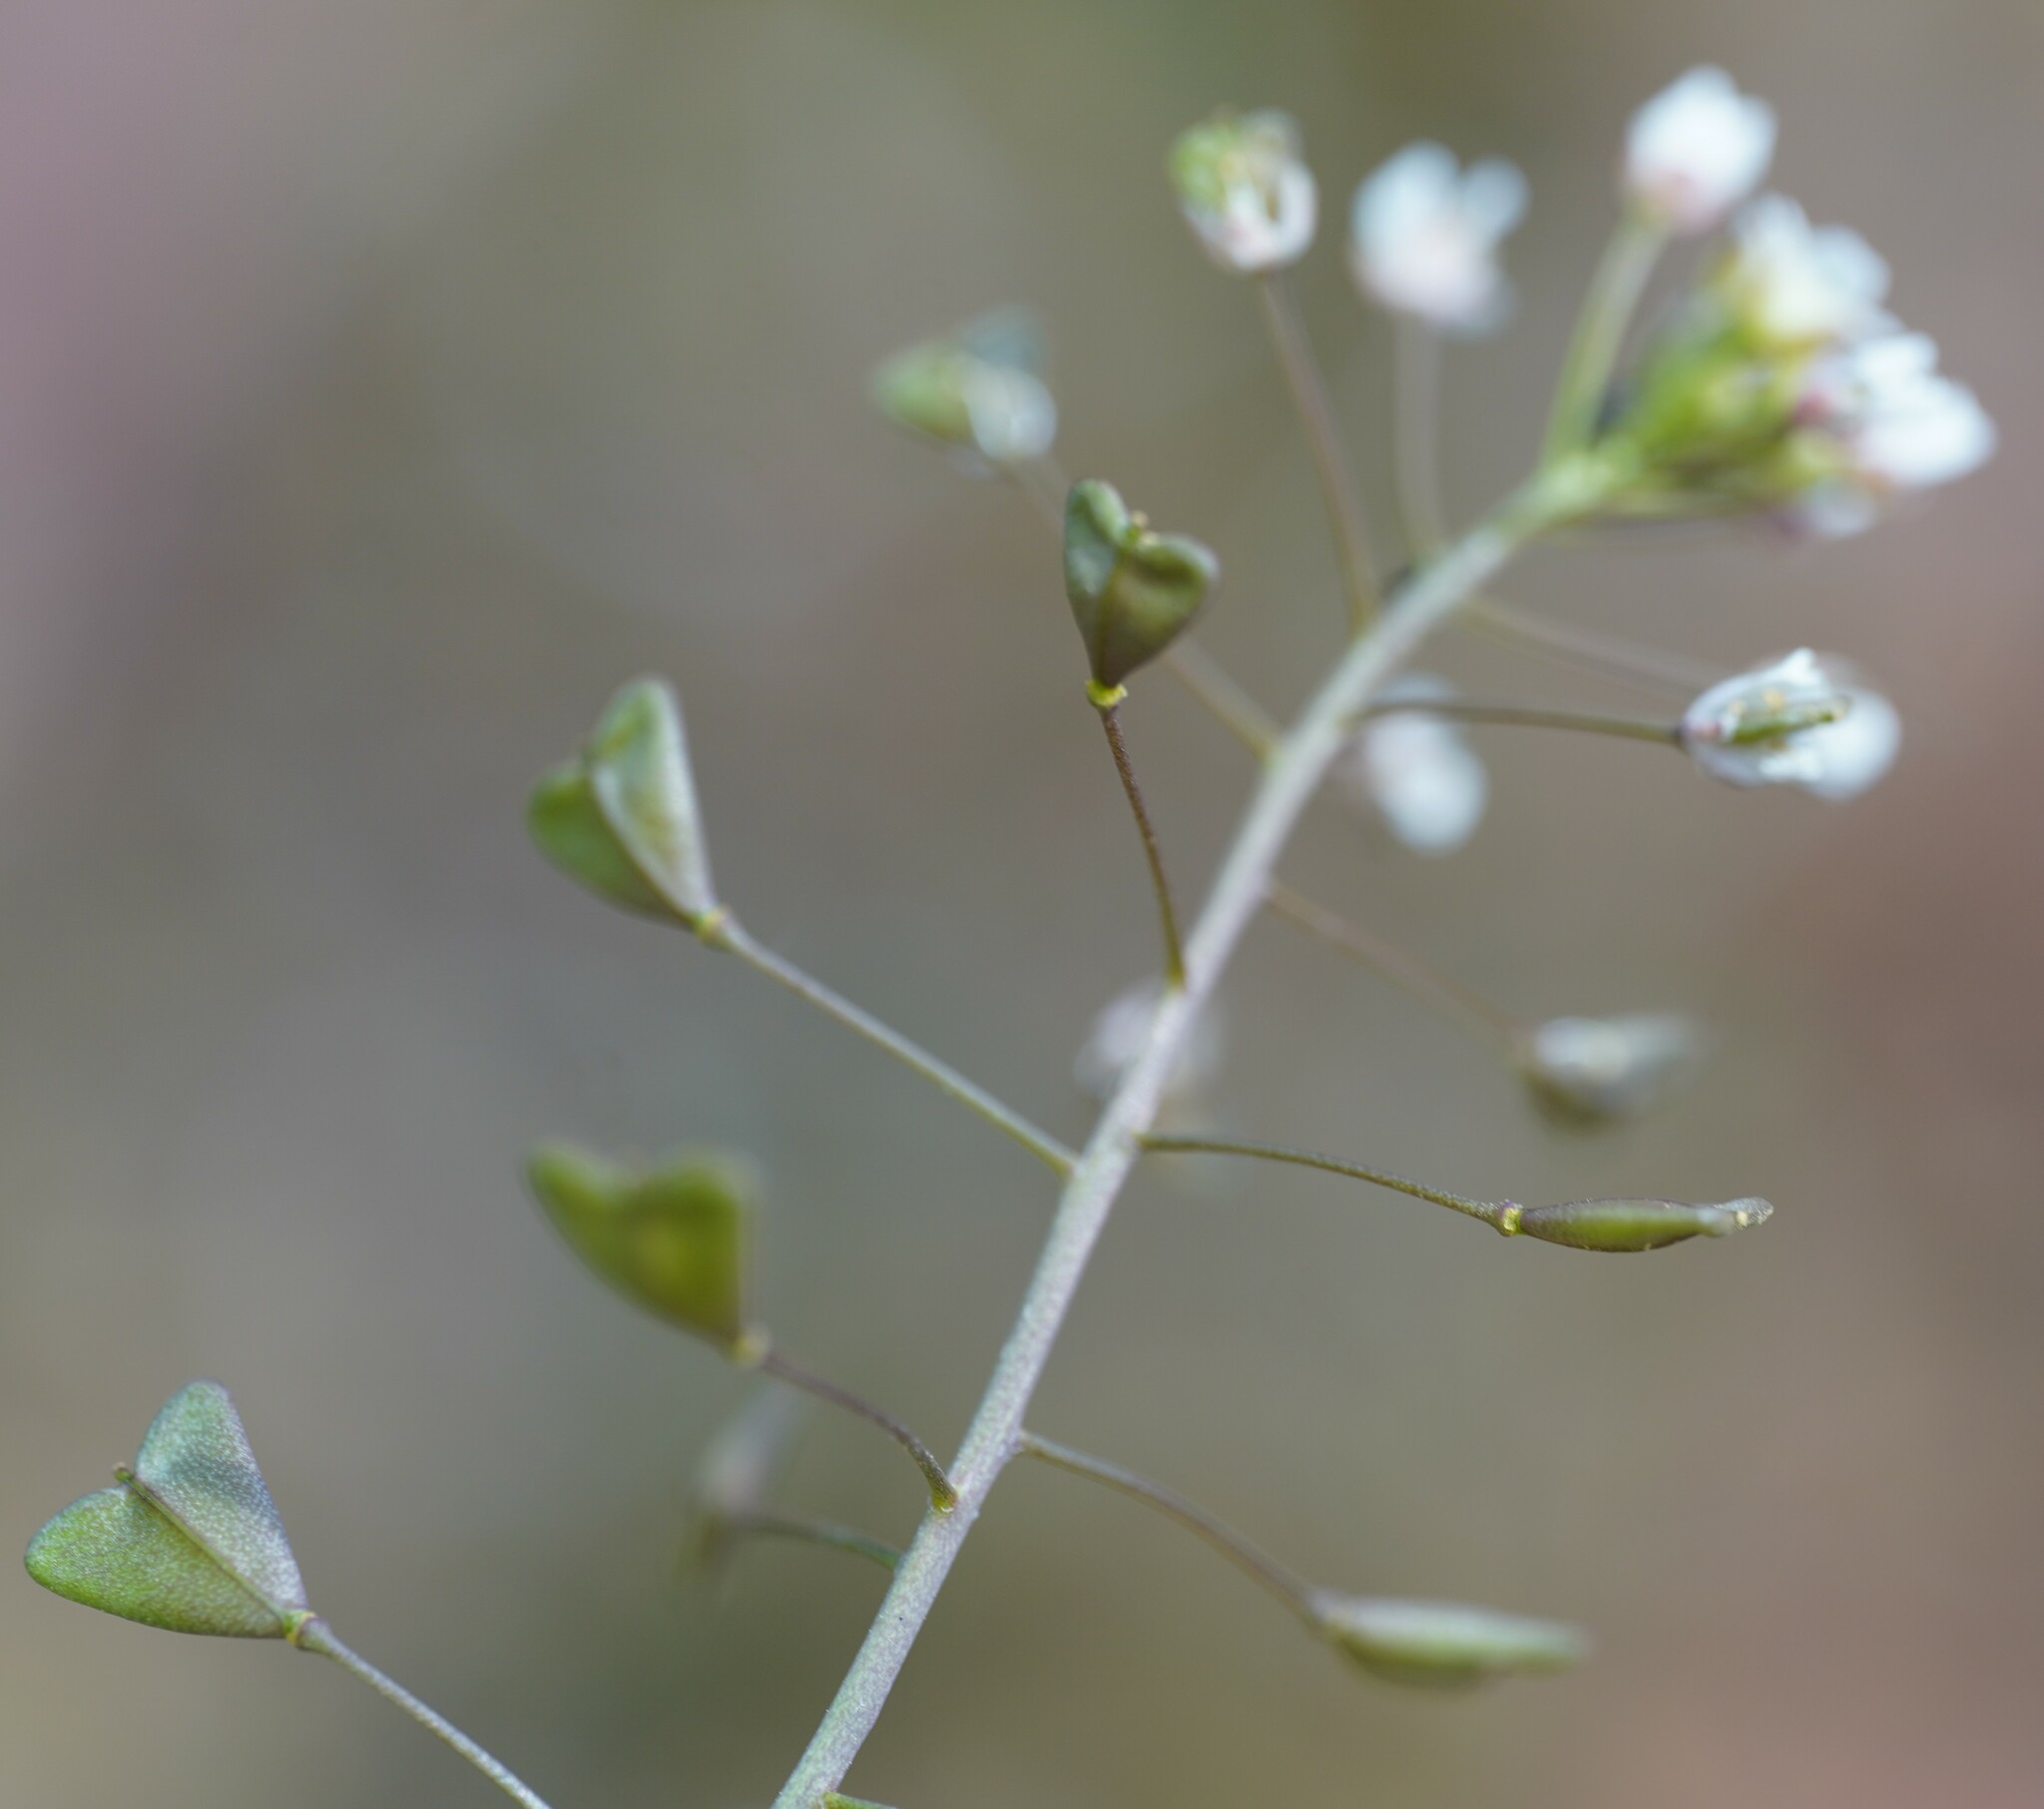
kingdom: Plantae
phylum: Tracheophyta
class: Magnoliopsida
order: Brassicales
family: Brassicaceae
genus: Capsella
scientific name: Capsella bursa-pastoris
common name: Shepherd's purse
